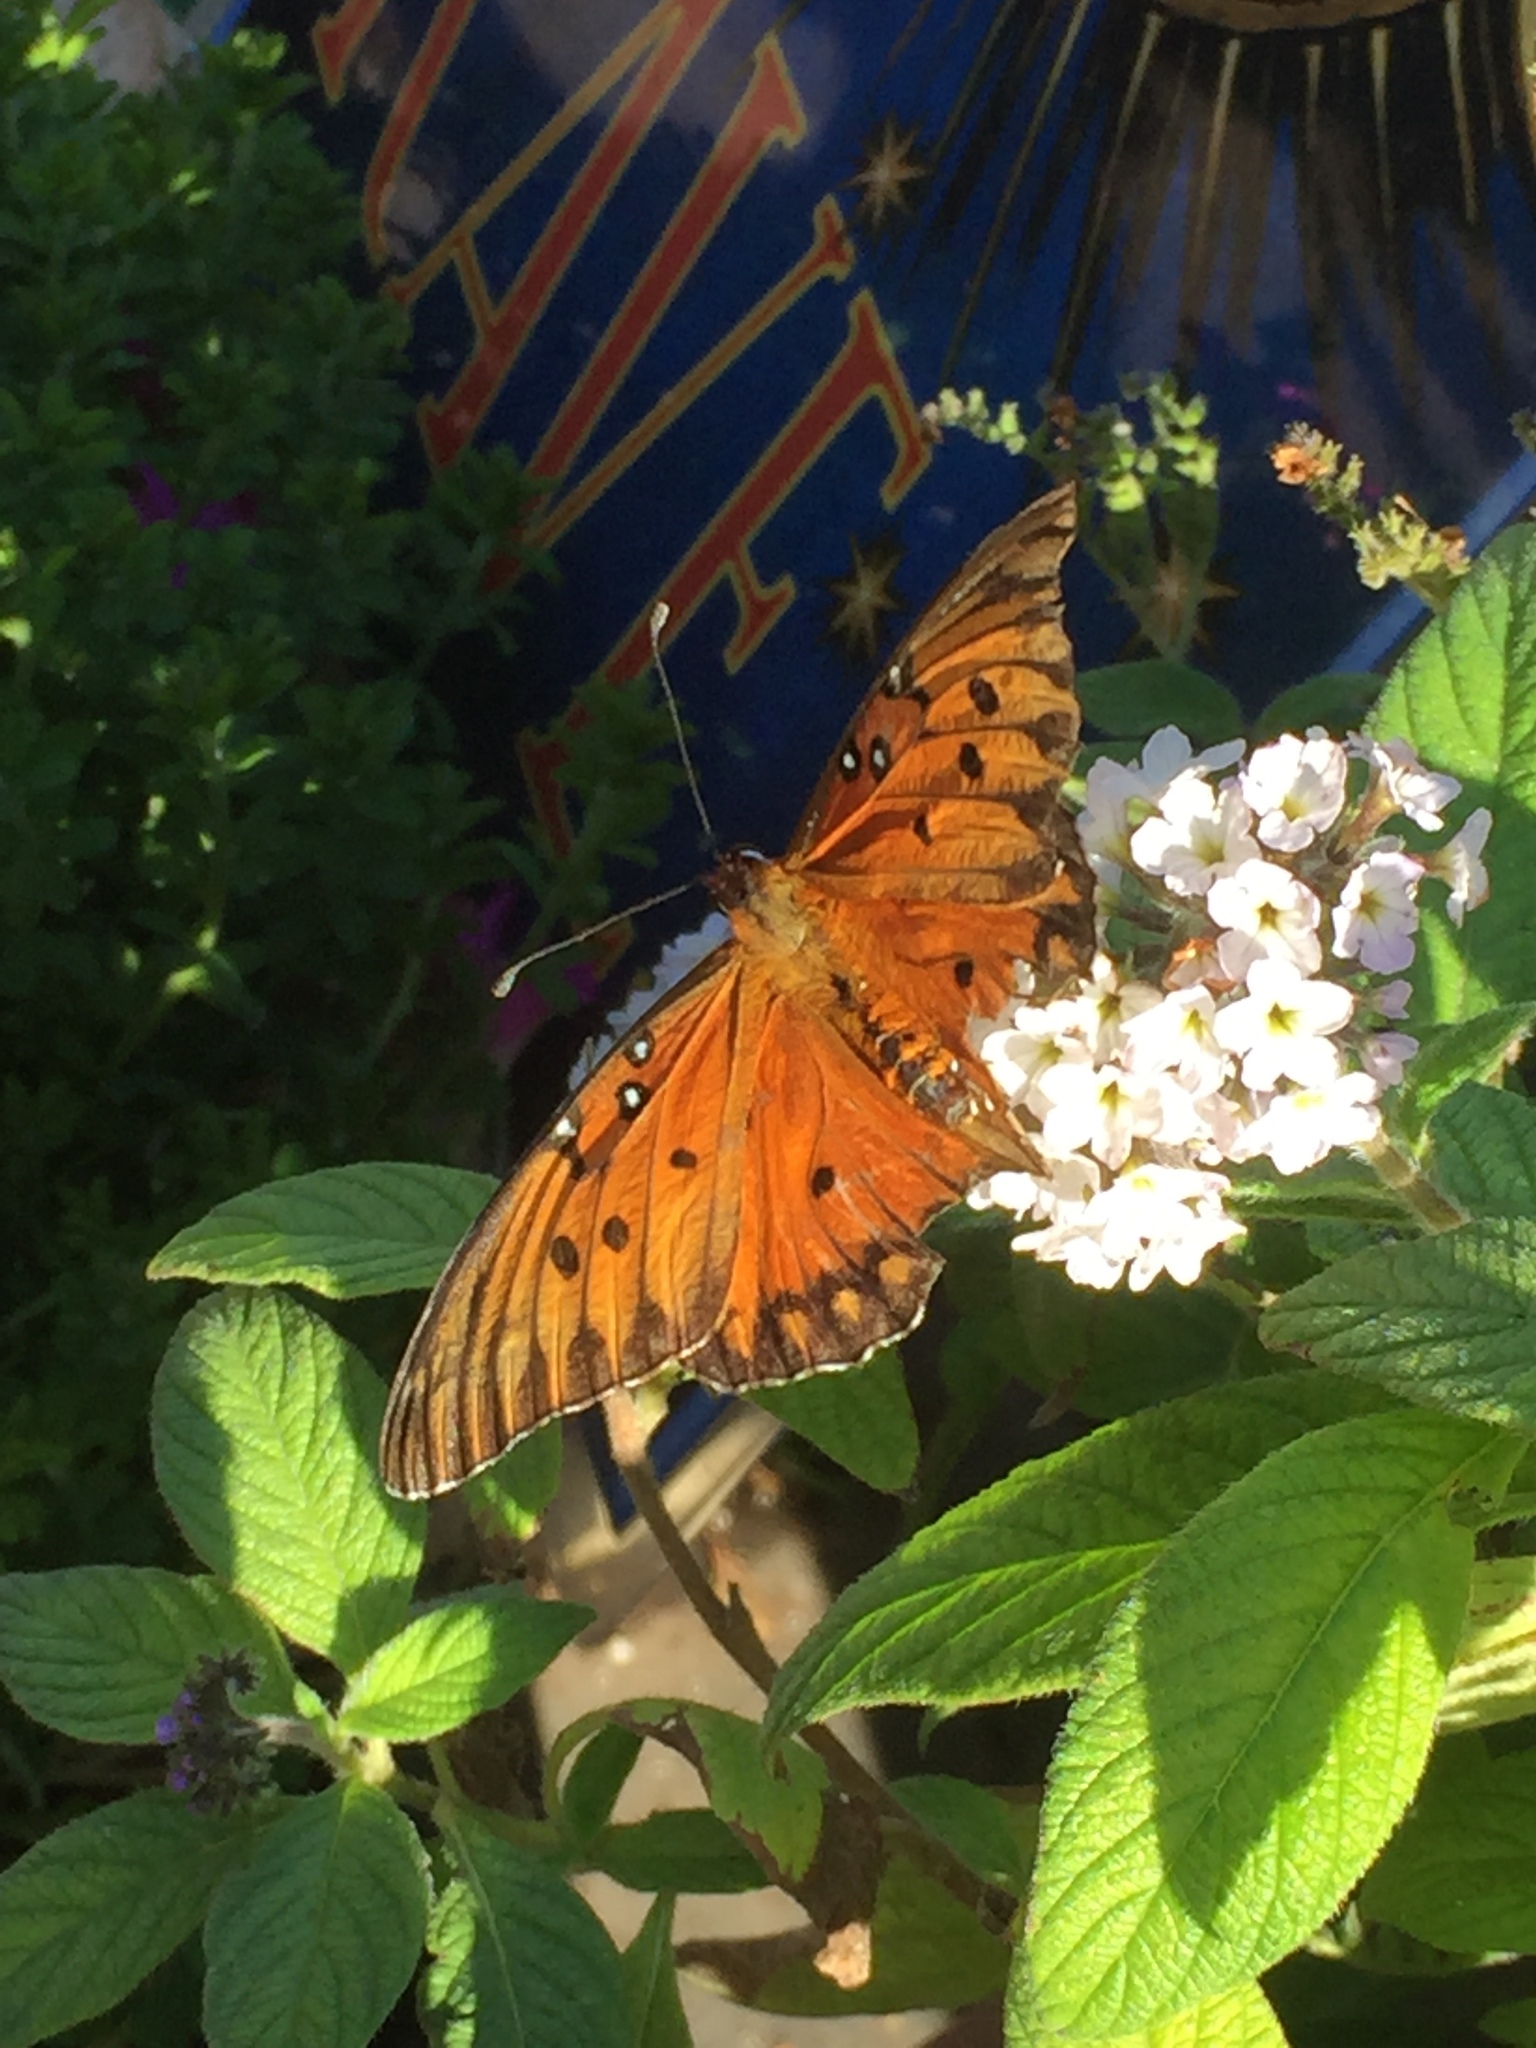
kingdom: Animalia
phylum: Arthropoda
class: Insecta
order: Lepidoptera
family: Nymphalidae
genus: Dione
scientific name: Dione vanillae
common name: Gulf fritillary
